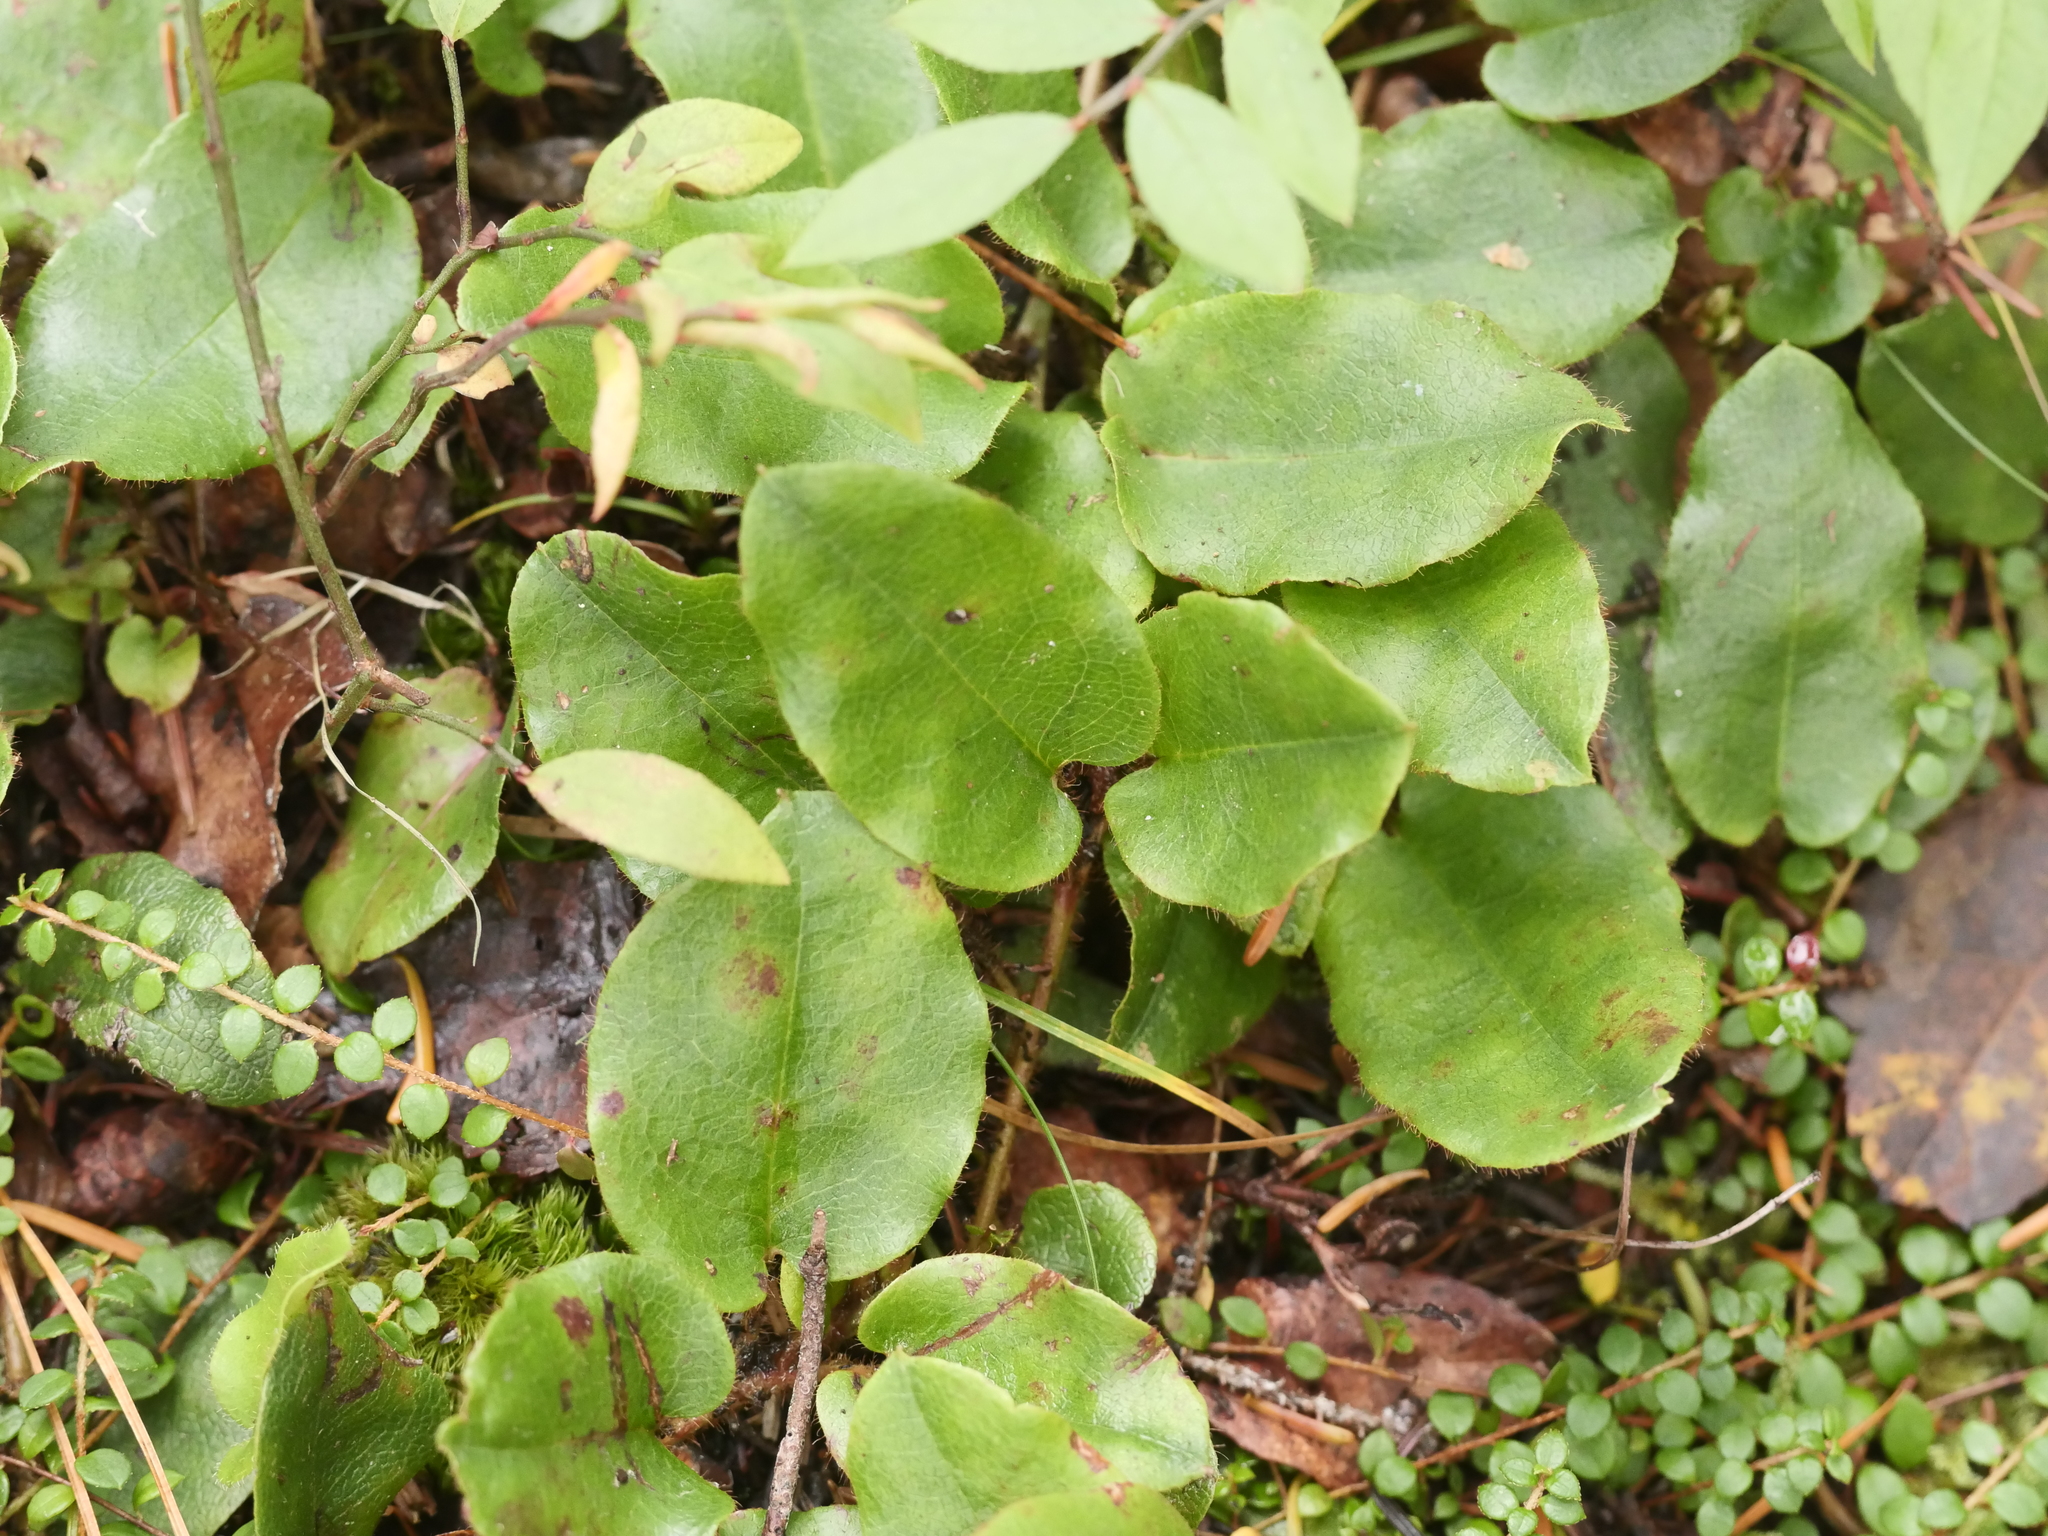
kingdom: Plantae
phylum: Tracheophyta
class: Magnoliopsida
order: Ericales
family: Ericaceae
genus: Epigaea
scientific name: Epigaea repens
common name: Gravelroot
